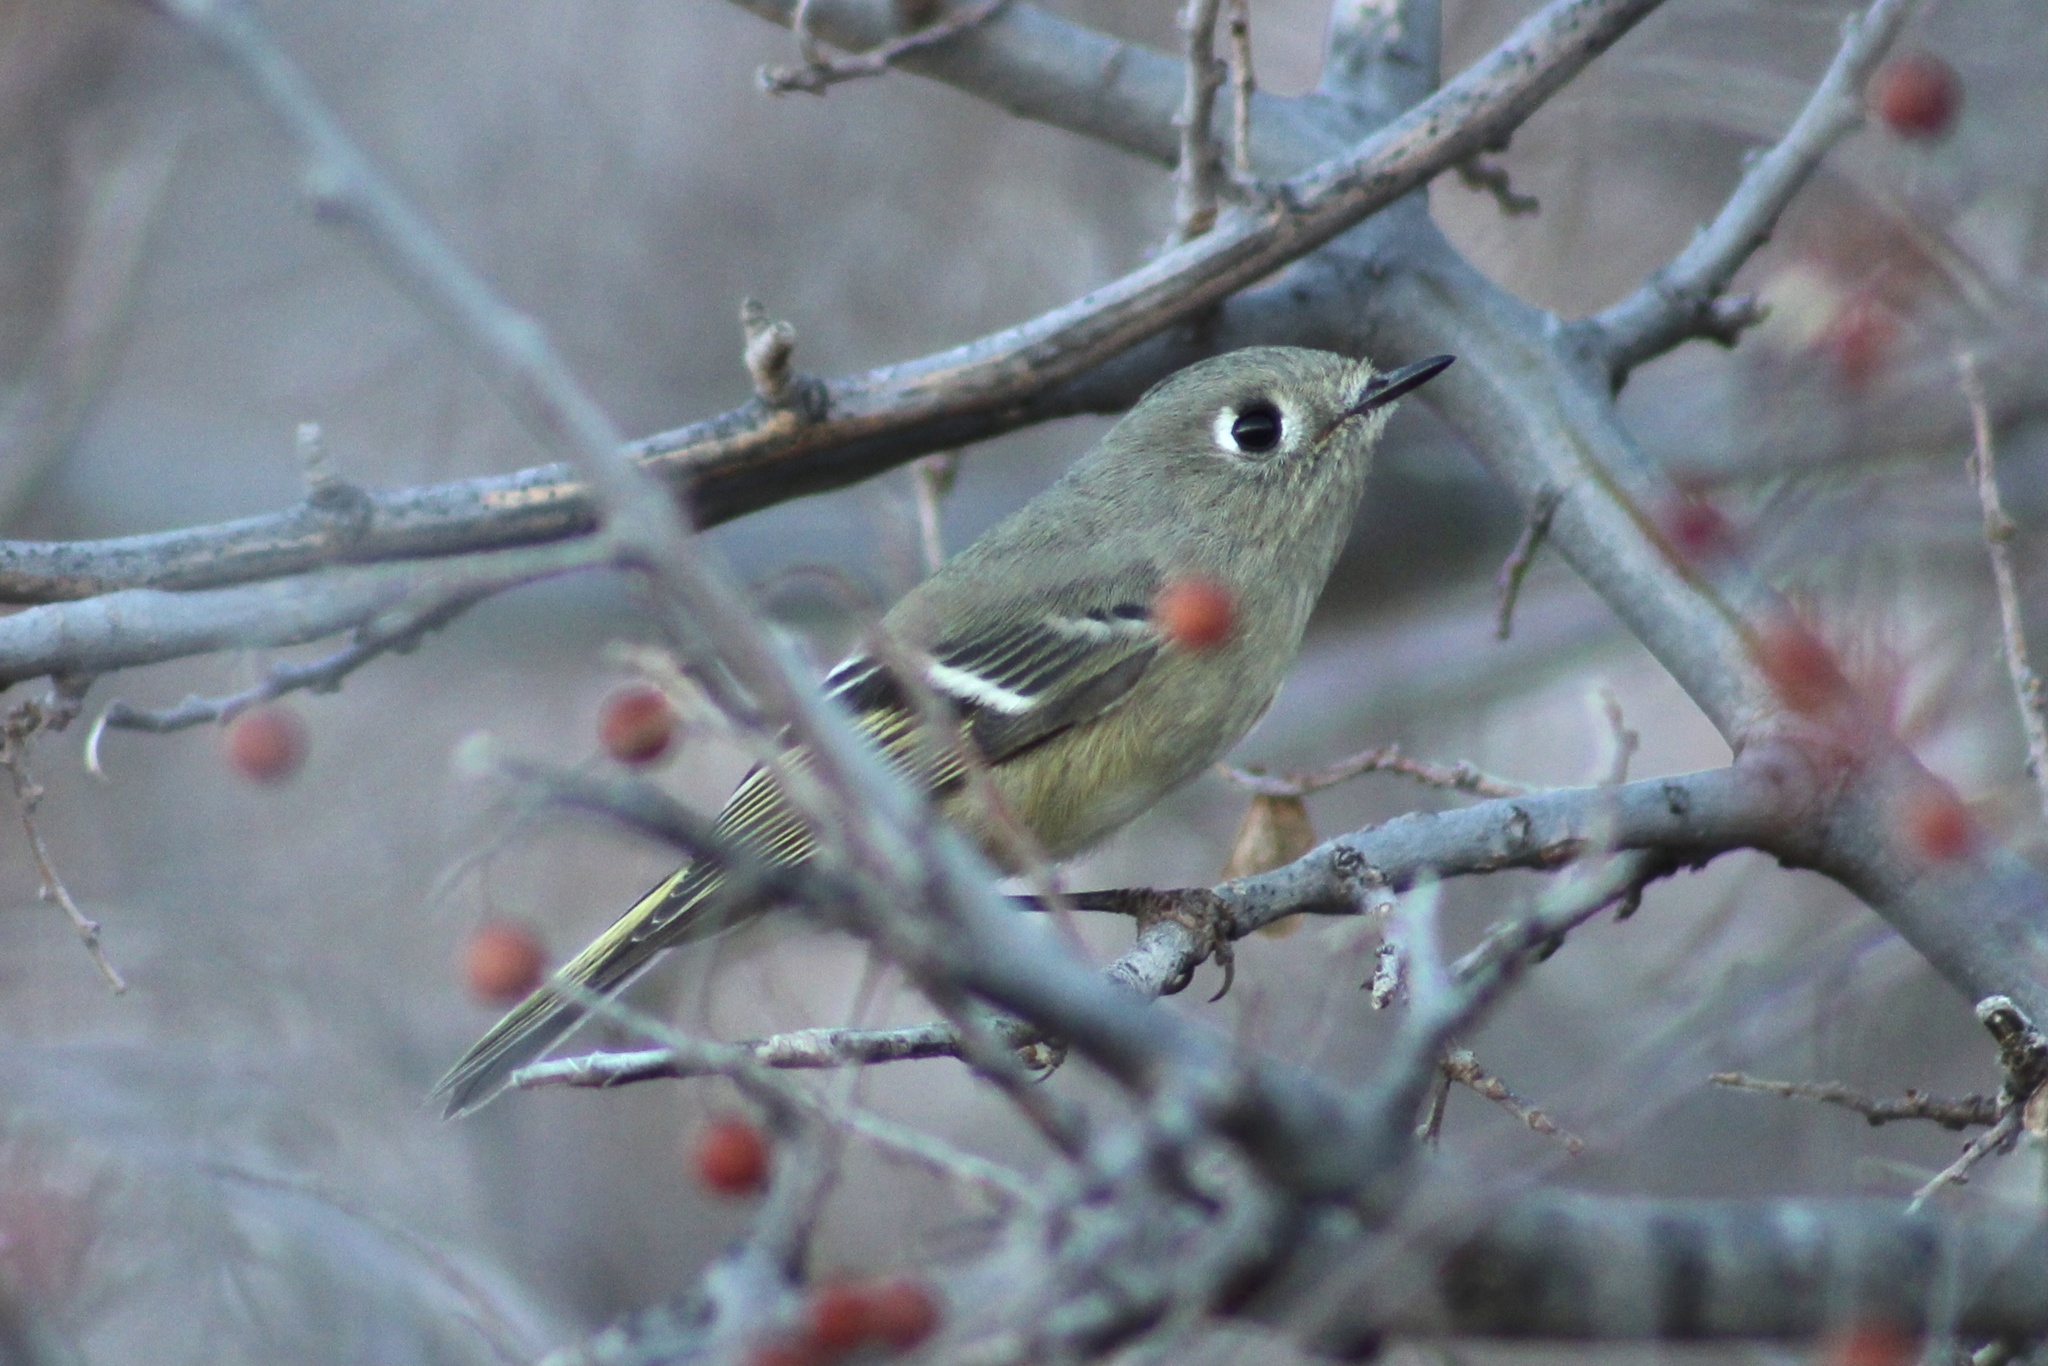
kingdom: Animalia
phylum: Chordata
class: Aves
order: Passeriformes
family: Regulidae
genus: Regulus
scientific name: Regulus calendula
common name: Ruby-crowned kinglet
